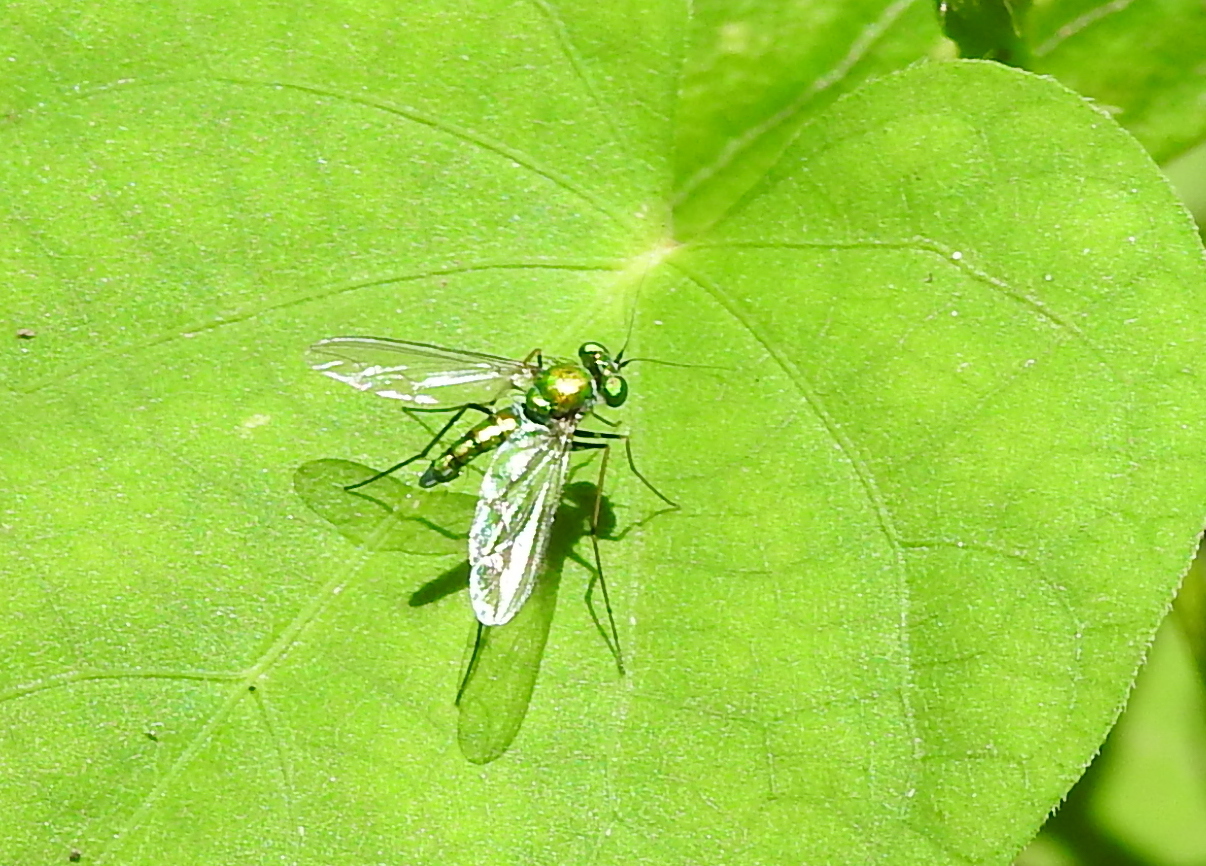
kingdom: Animalia
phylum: Arthropoda
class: Insecta
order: Diptera
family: Dolichopodidae
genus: Chrysosoma
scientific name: Chrysosoma globifer
